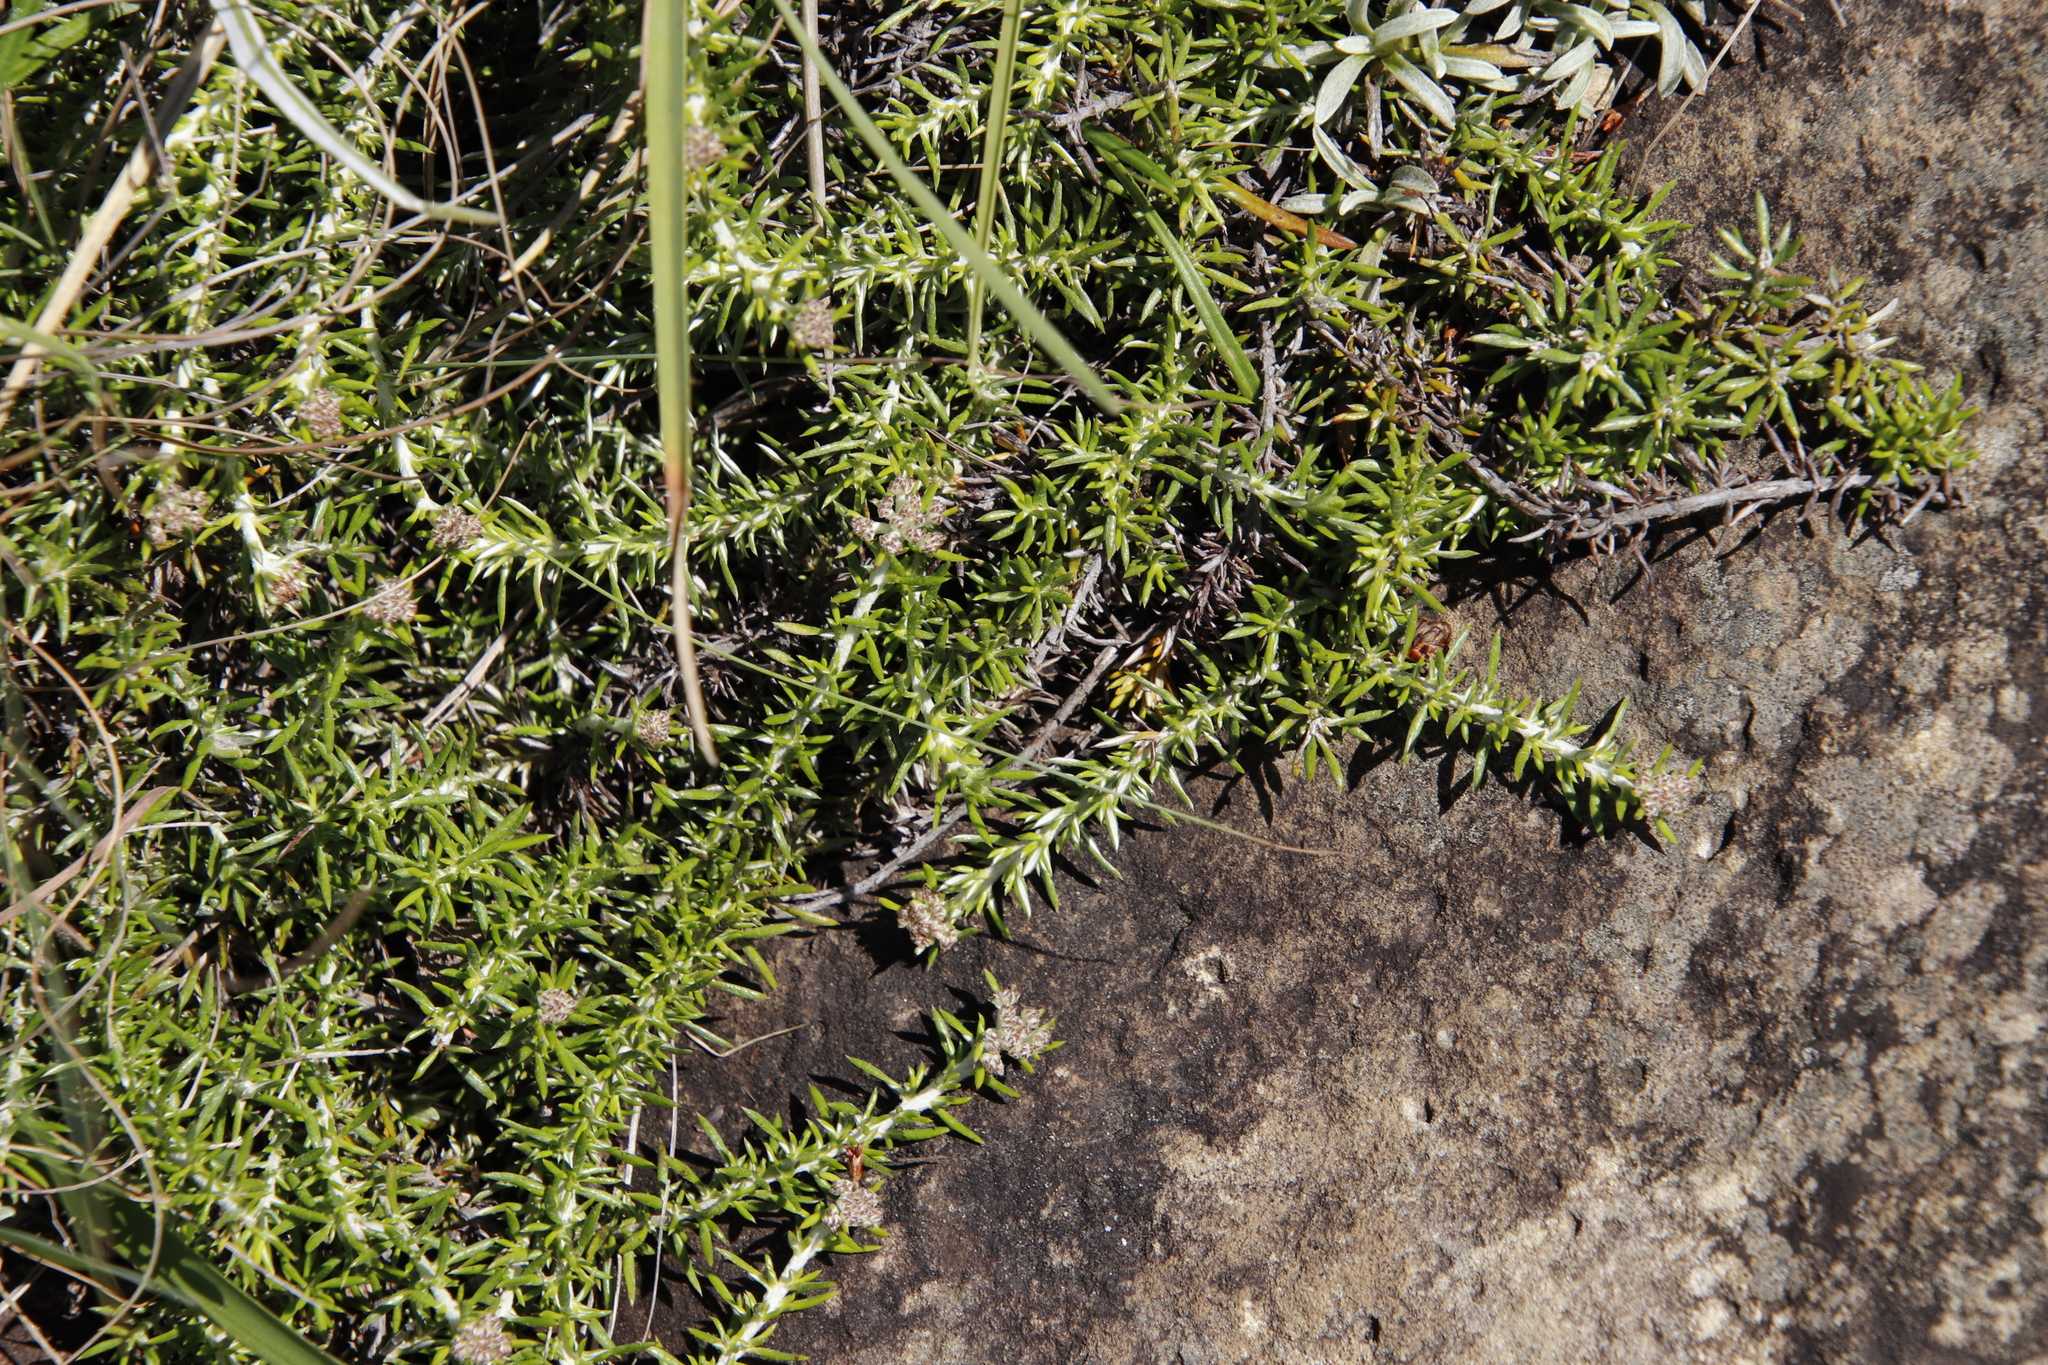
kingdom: Plantae
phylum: Tracheophyta
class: Magnoliopsida
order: Asterales
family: Asteraceae
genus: Metalasia
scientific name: Metalasia densa
